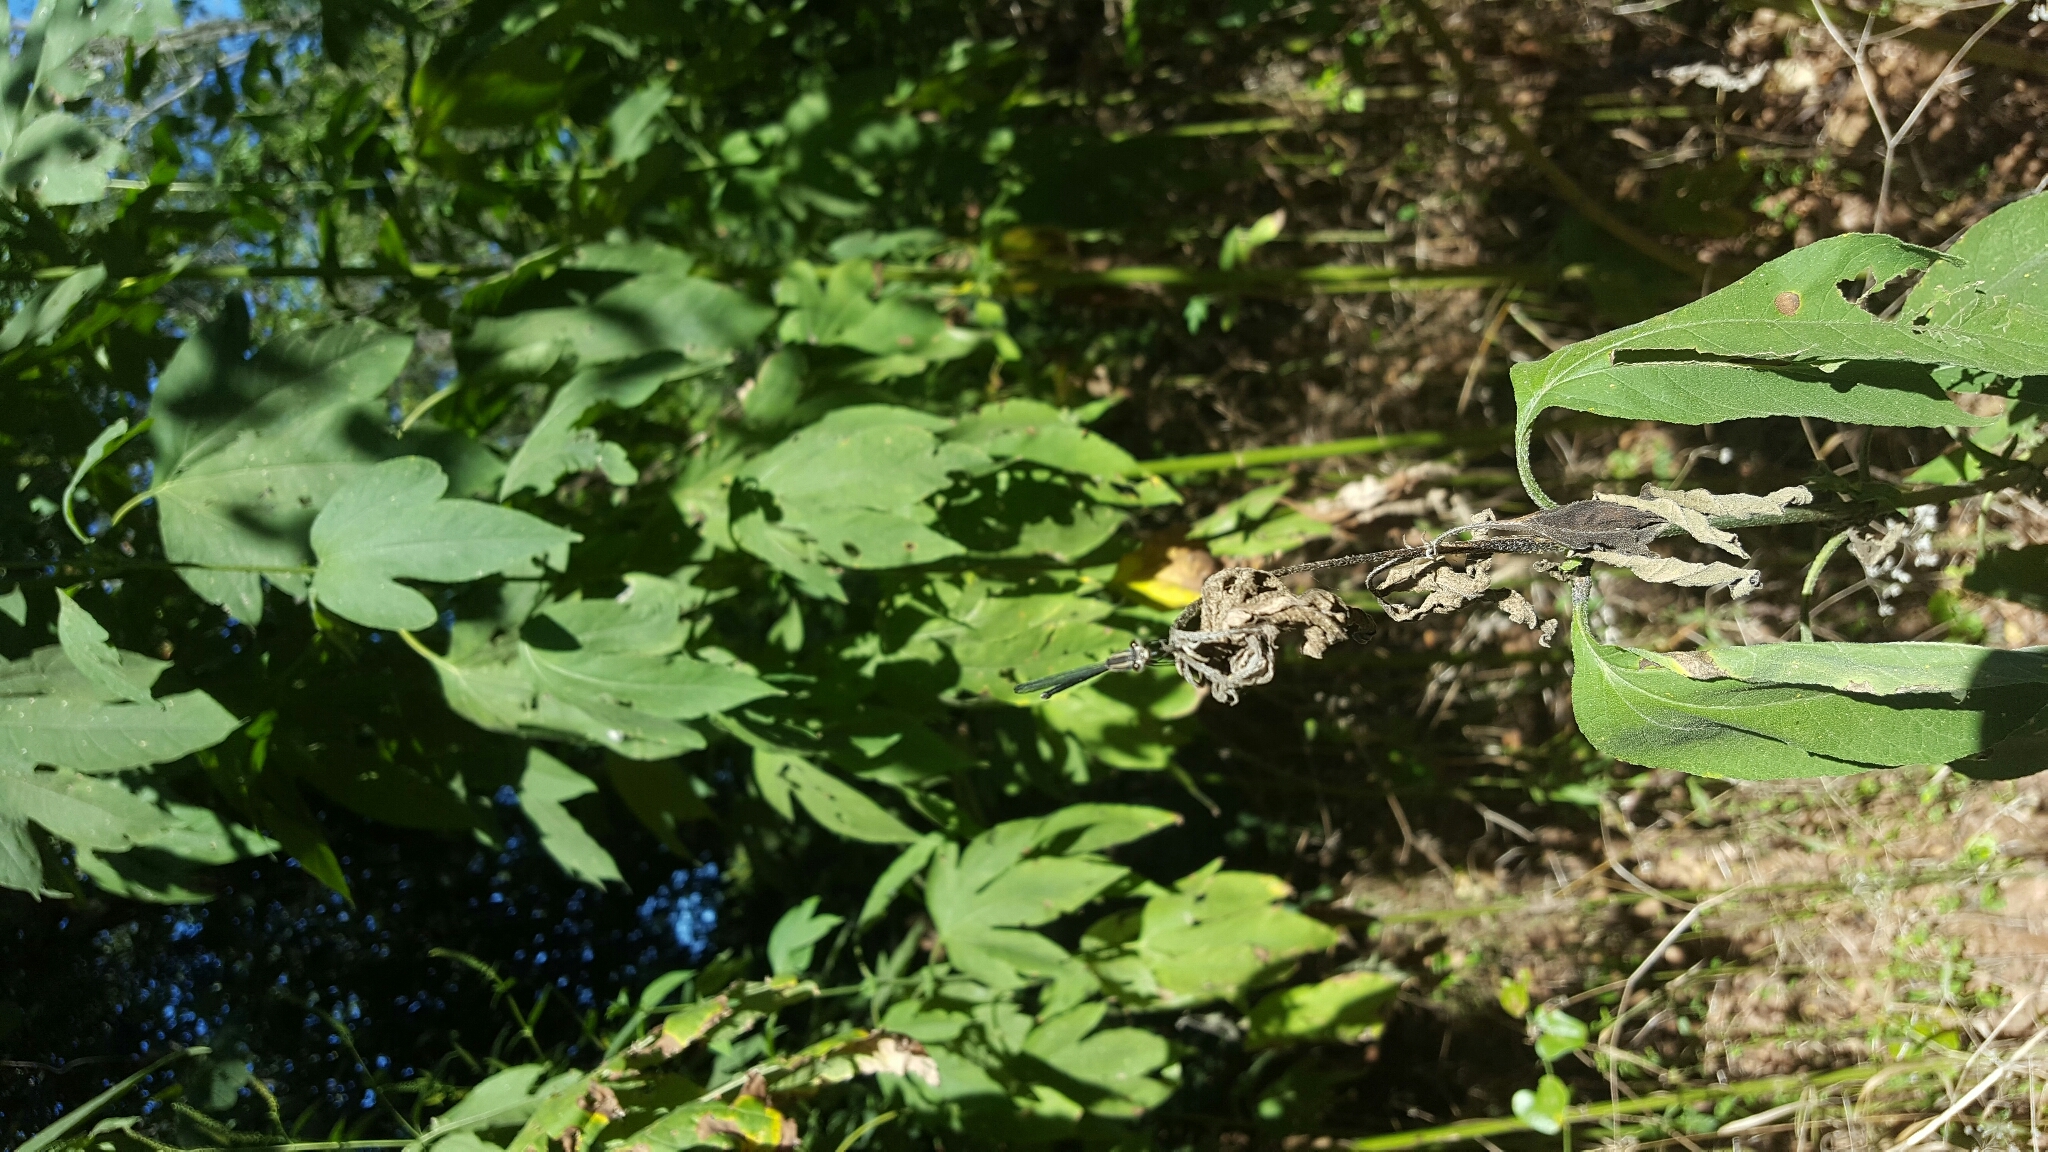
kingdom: Animalia
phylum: Arthropoda
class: Insecta
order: Odonata
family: Coenagrionidae
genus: Argia
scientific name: Argia translata
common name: Dusky dancer
